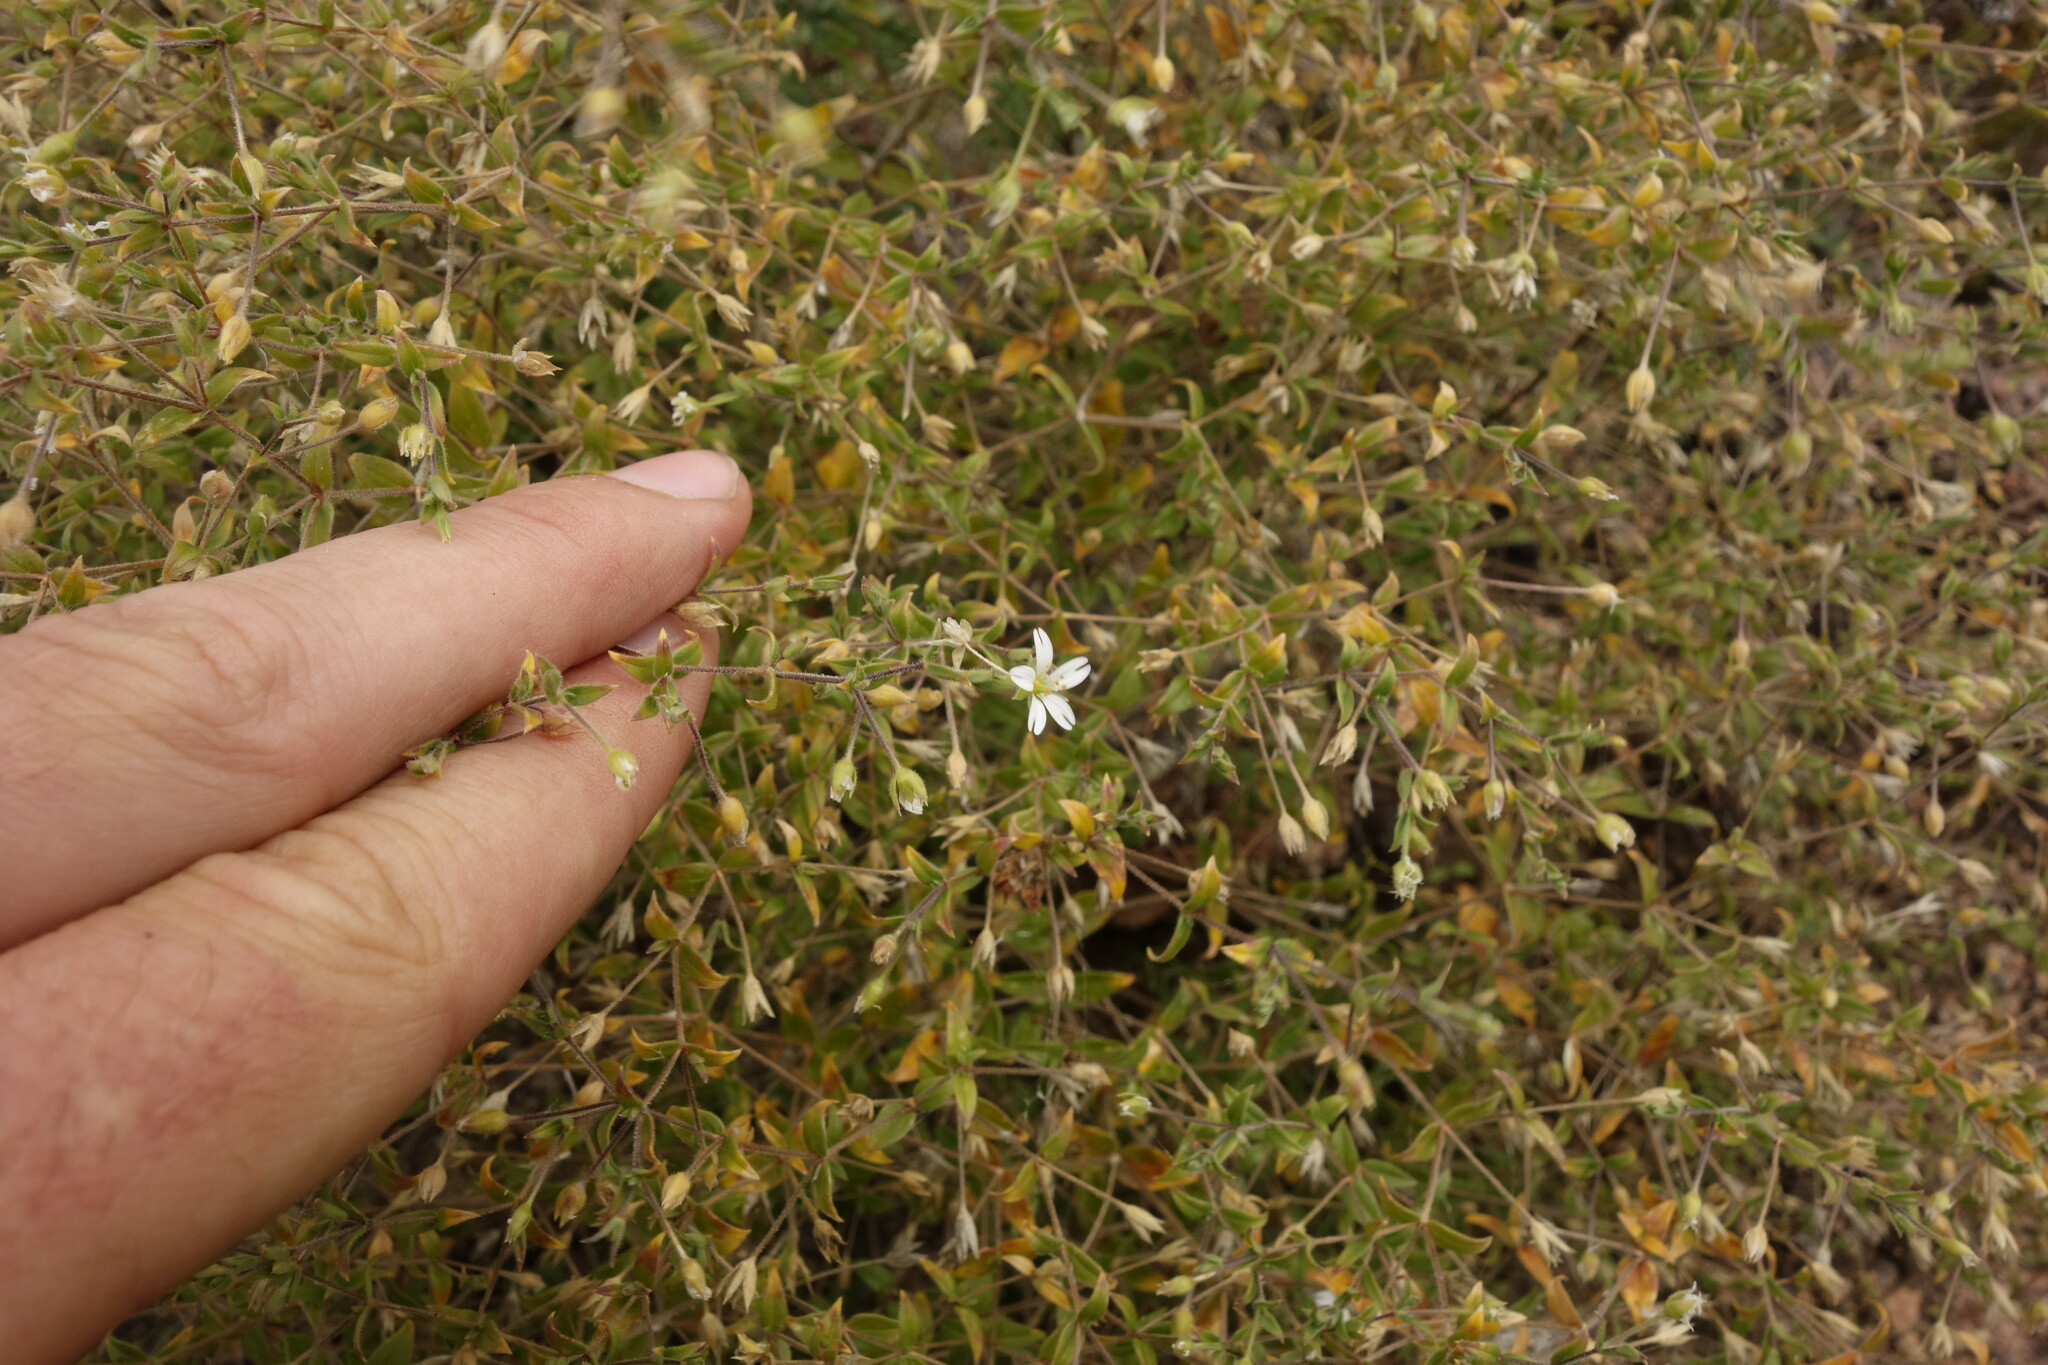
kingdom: Plantae
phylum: Tracheophyta
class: Magnoliopsida
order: Caryophyllales
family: Caryophyllaceae
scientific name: Caryophyllaceae
